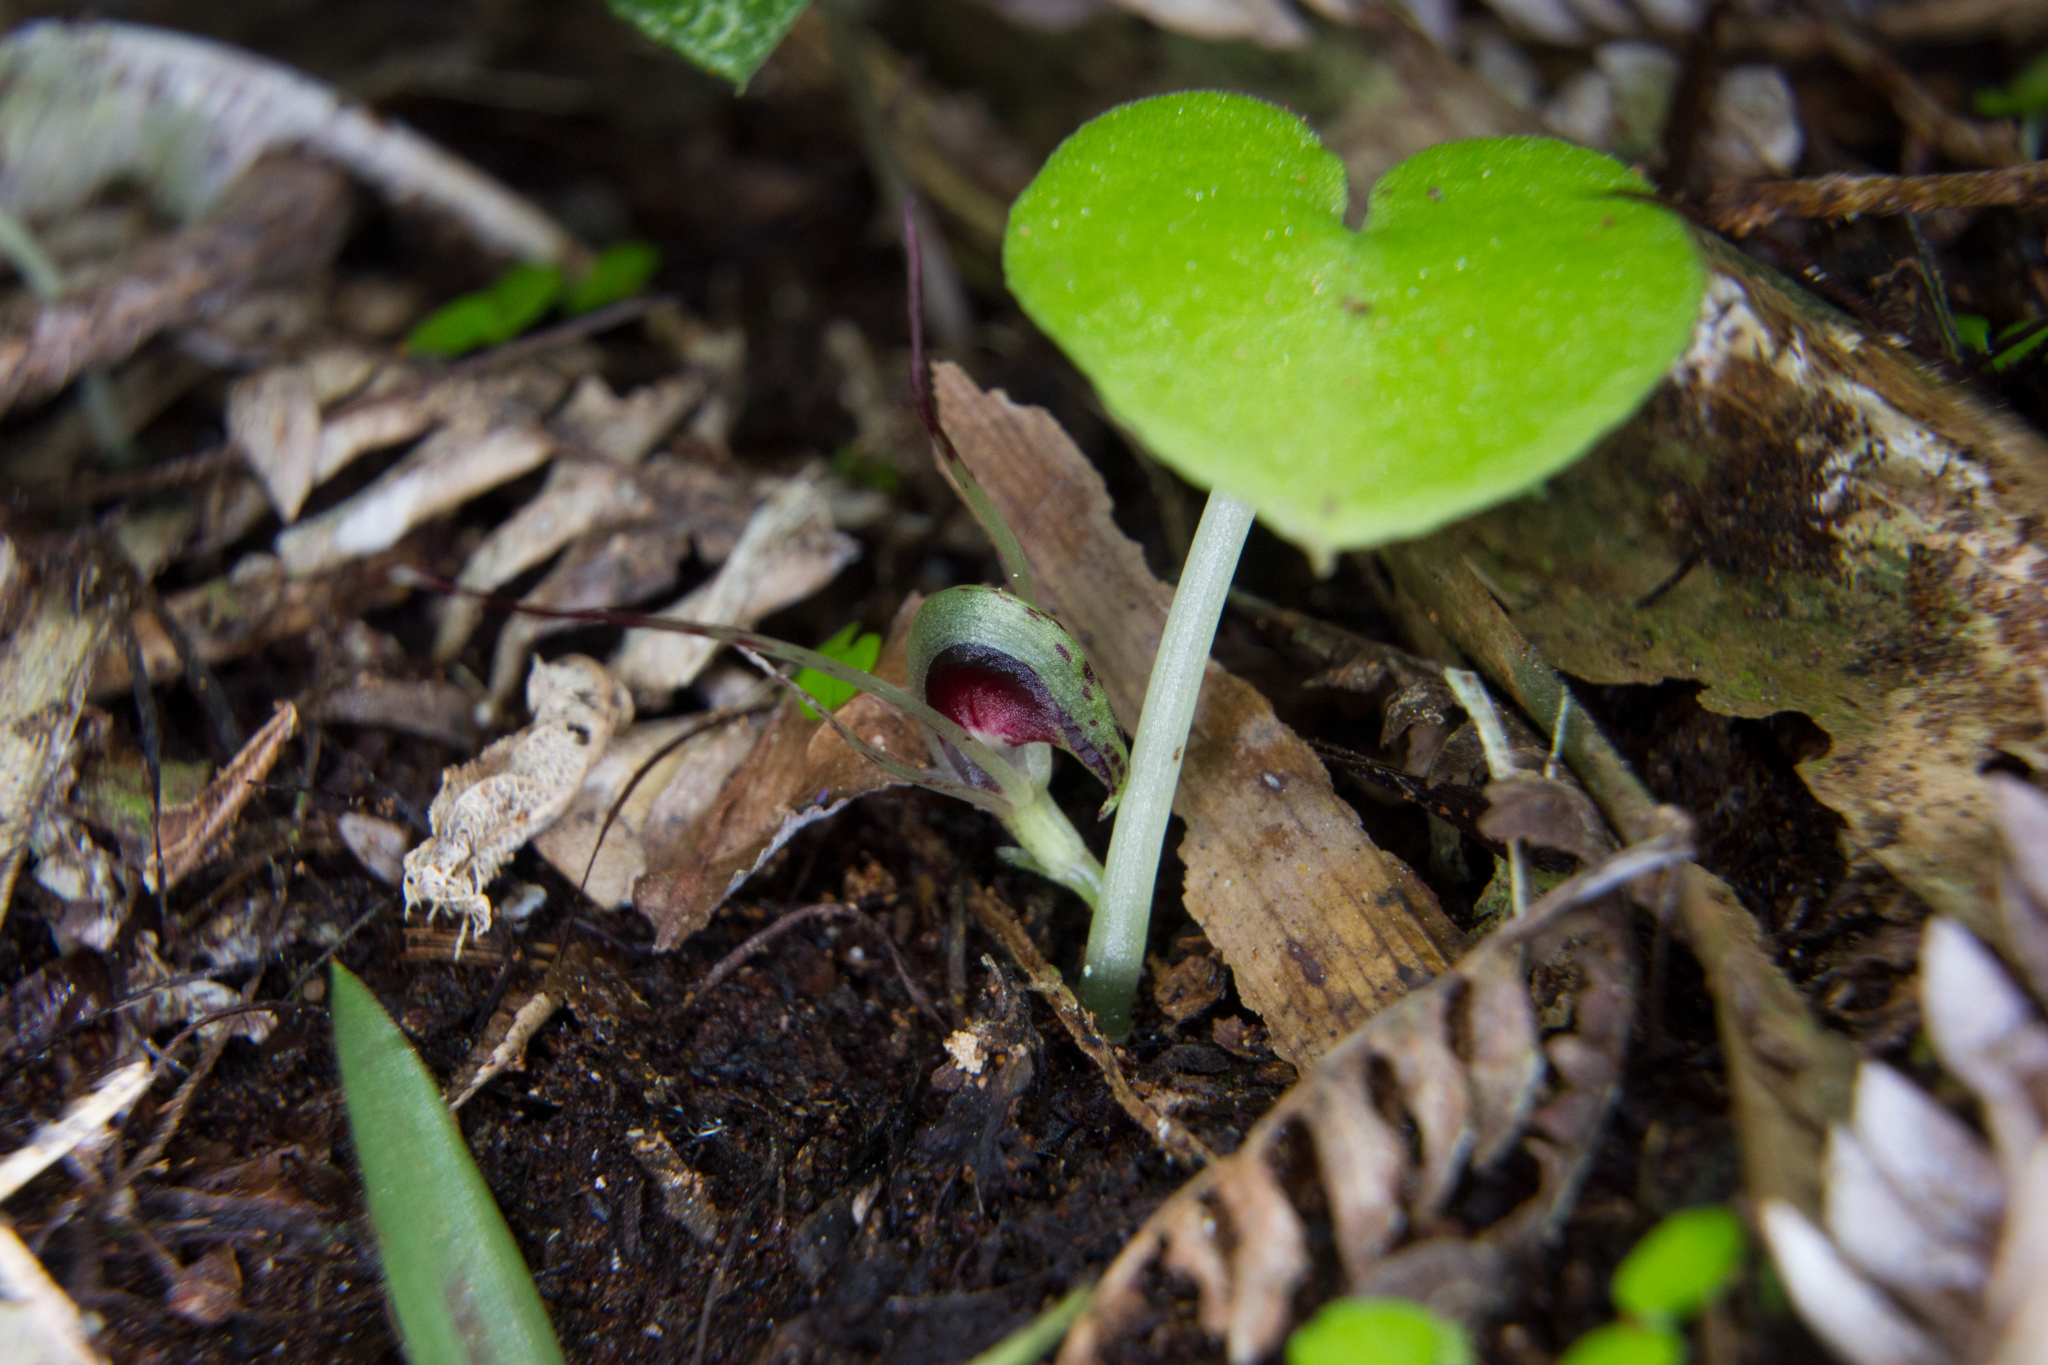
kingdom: Plantae
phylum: Tracheophyta
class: Liliopsida
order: Asparagales
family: Orchidaceae
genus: Corybas
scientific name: Corybas macranthus
